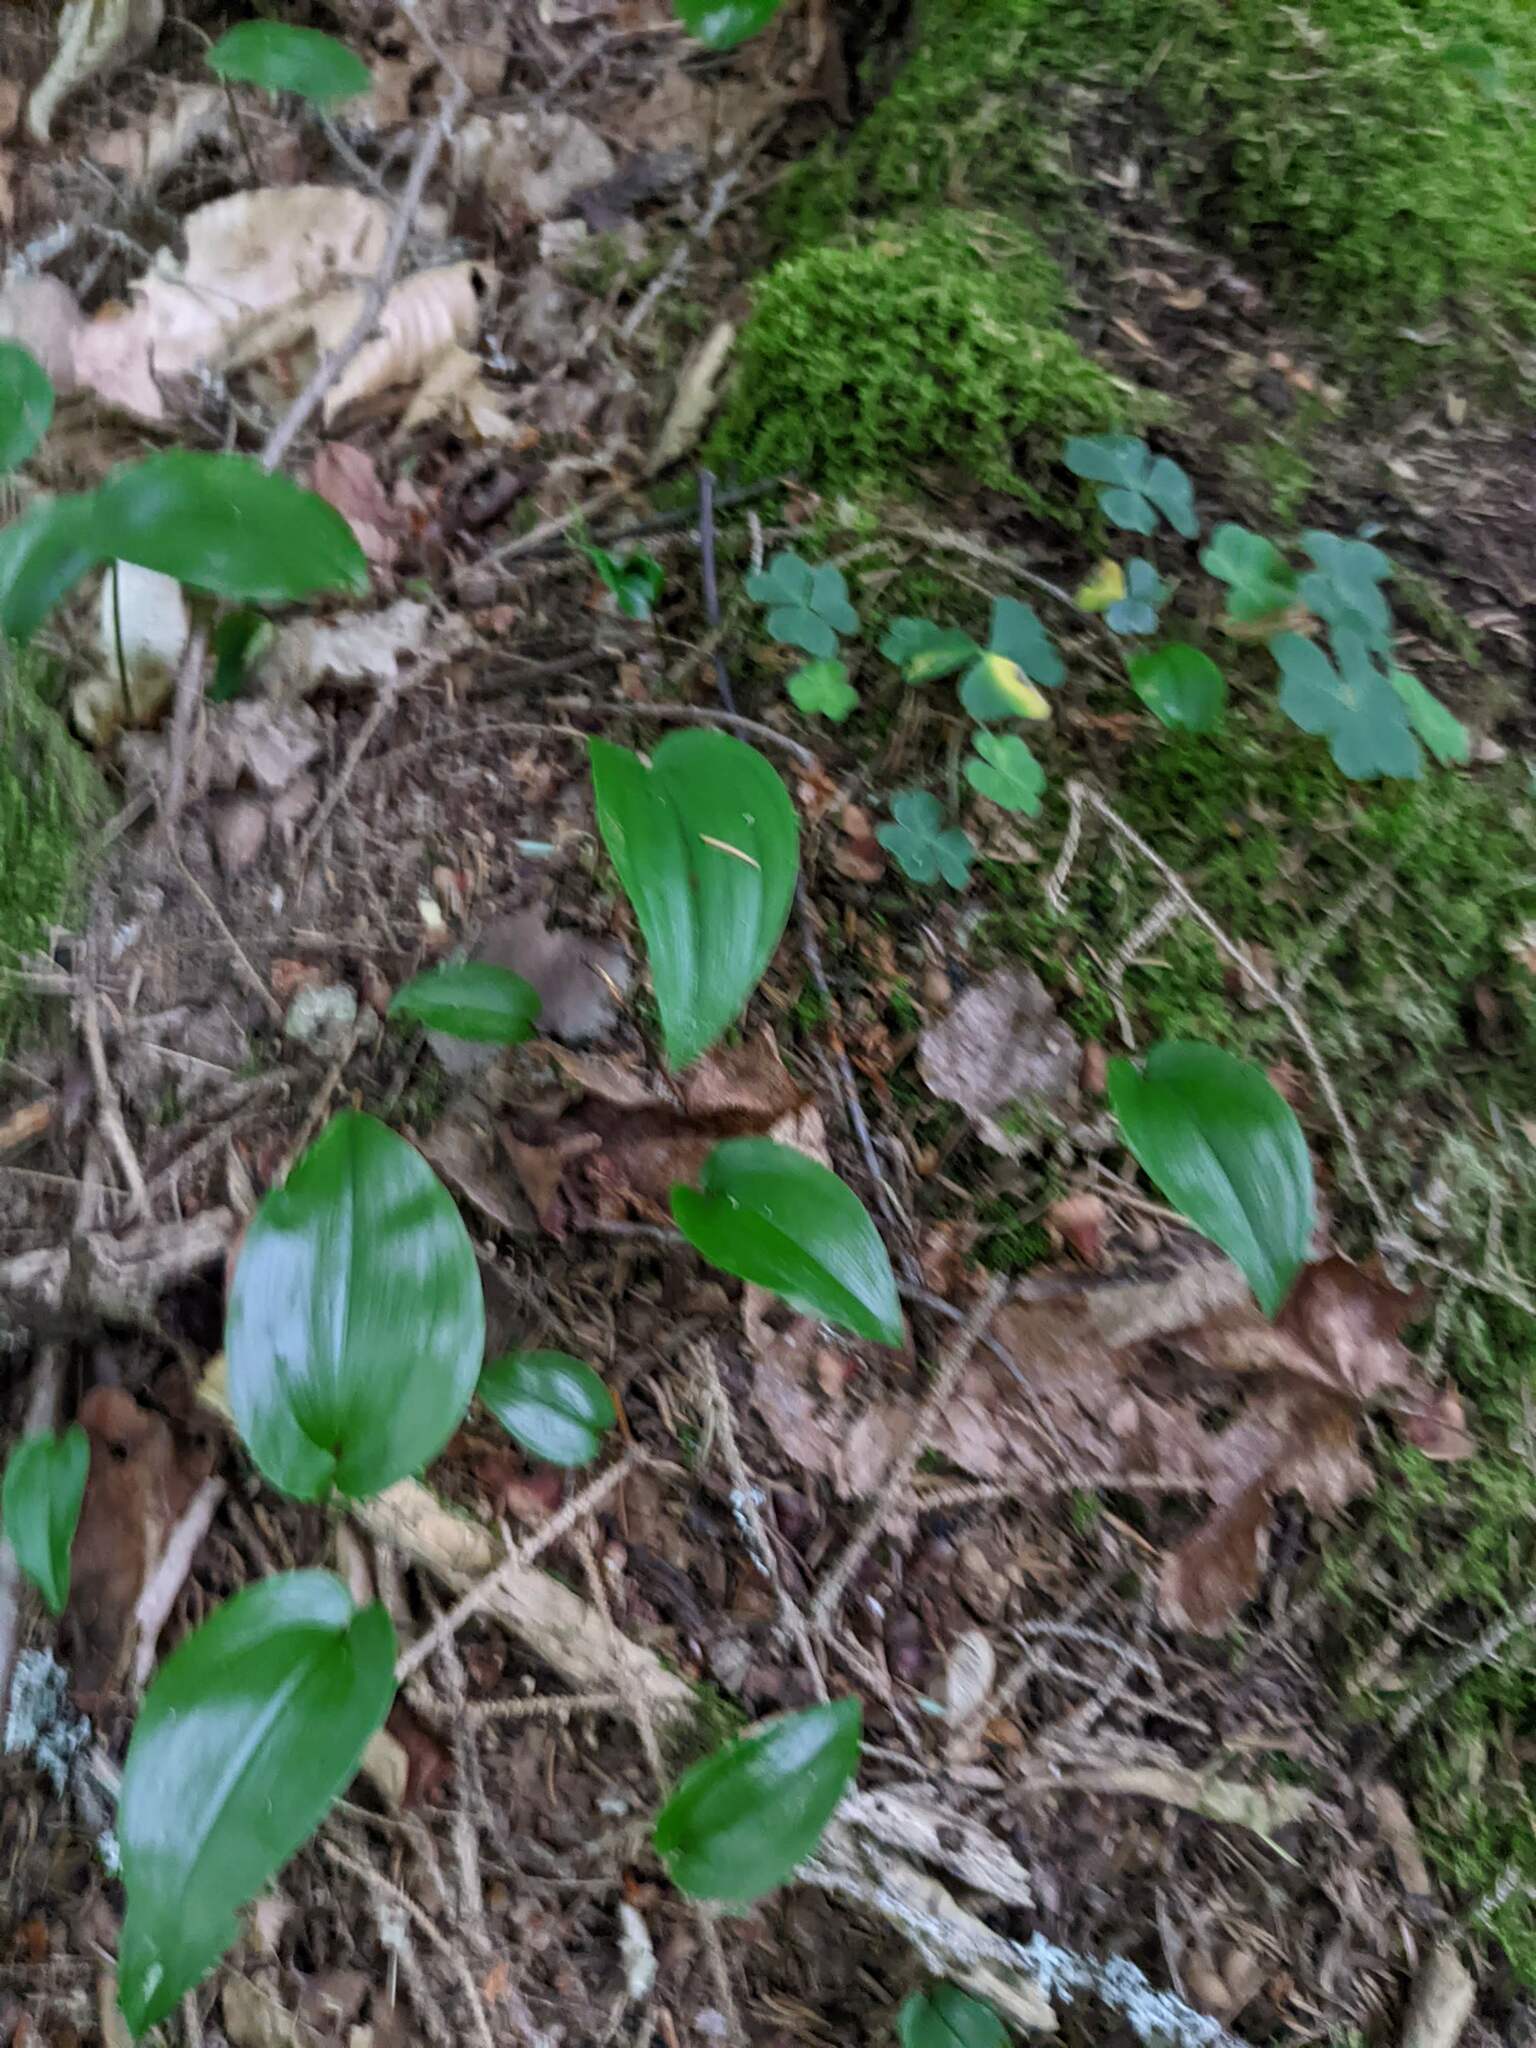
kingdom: Plantae
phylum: Tracheophyta
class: Liliopsida
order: Asparagales
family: Asparagaceae
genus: Maianthemum
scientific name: Maianthemum canadense
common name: False lily-of-the-valley
